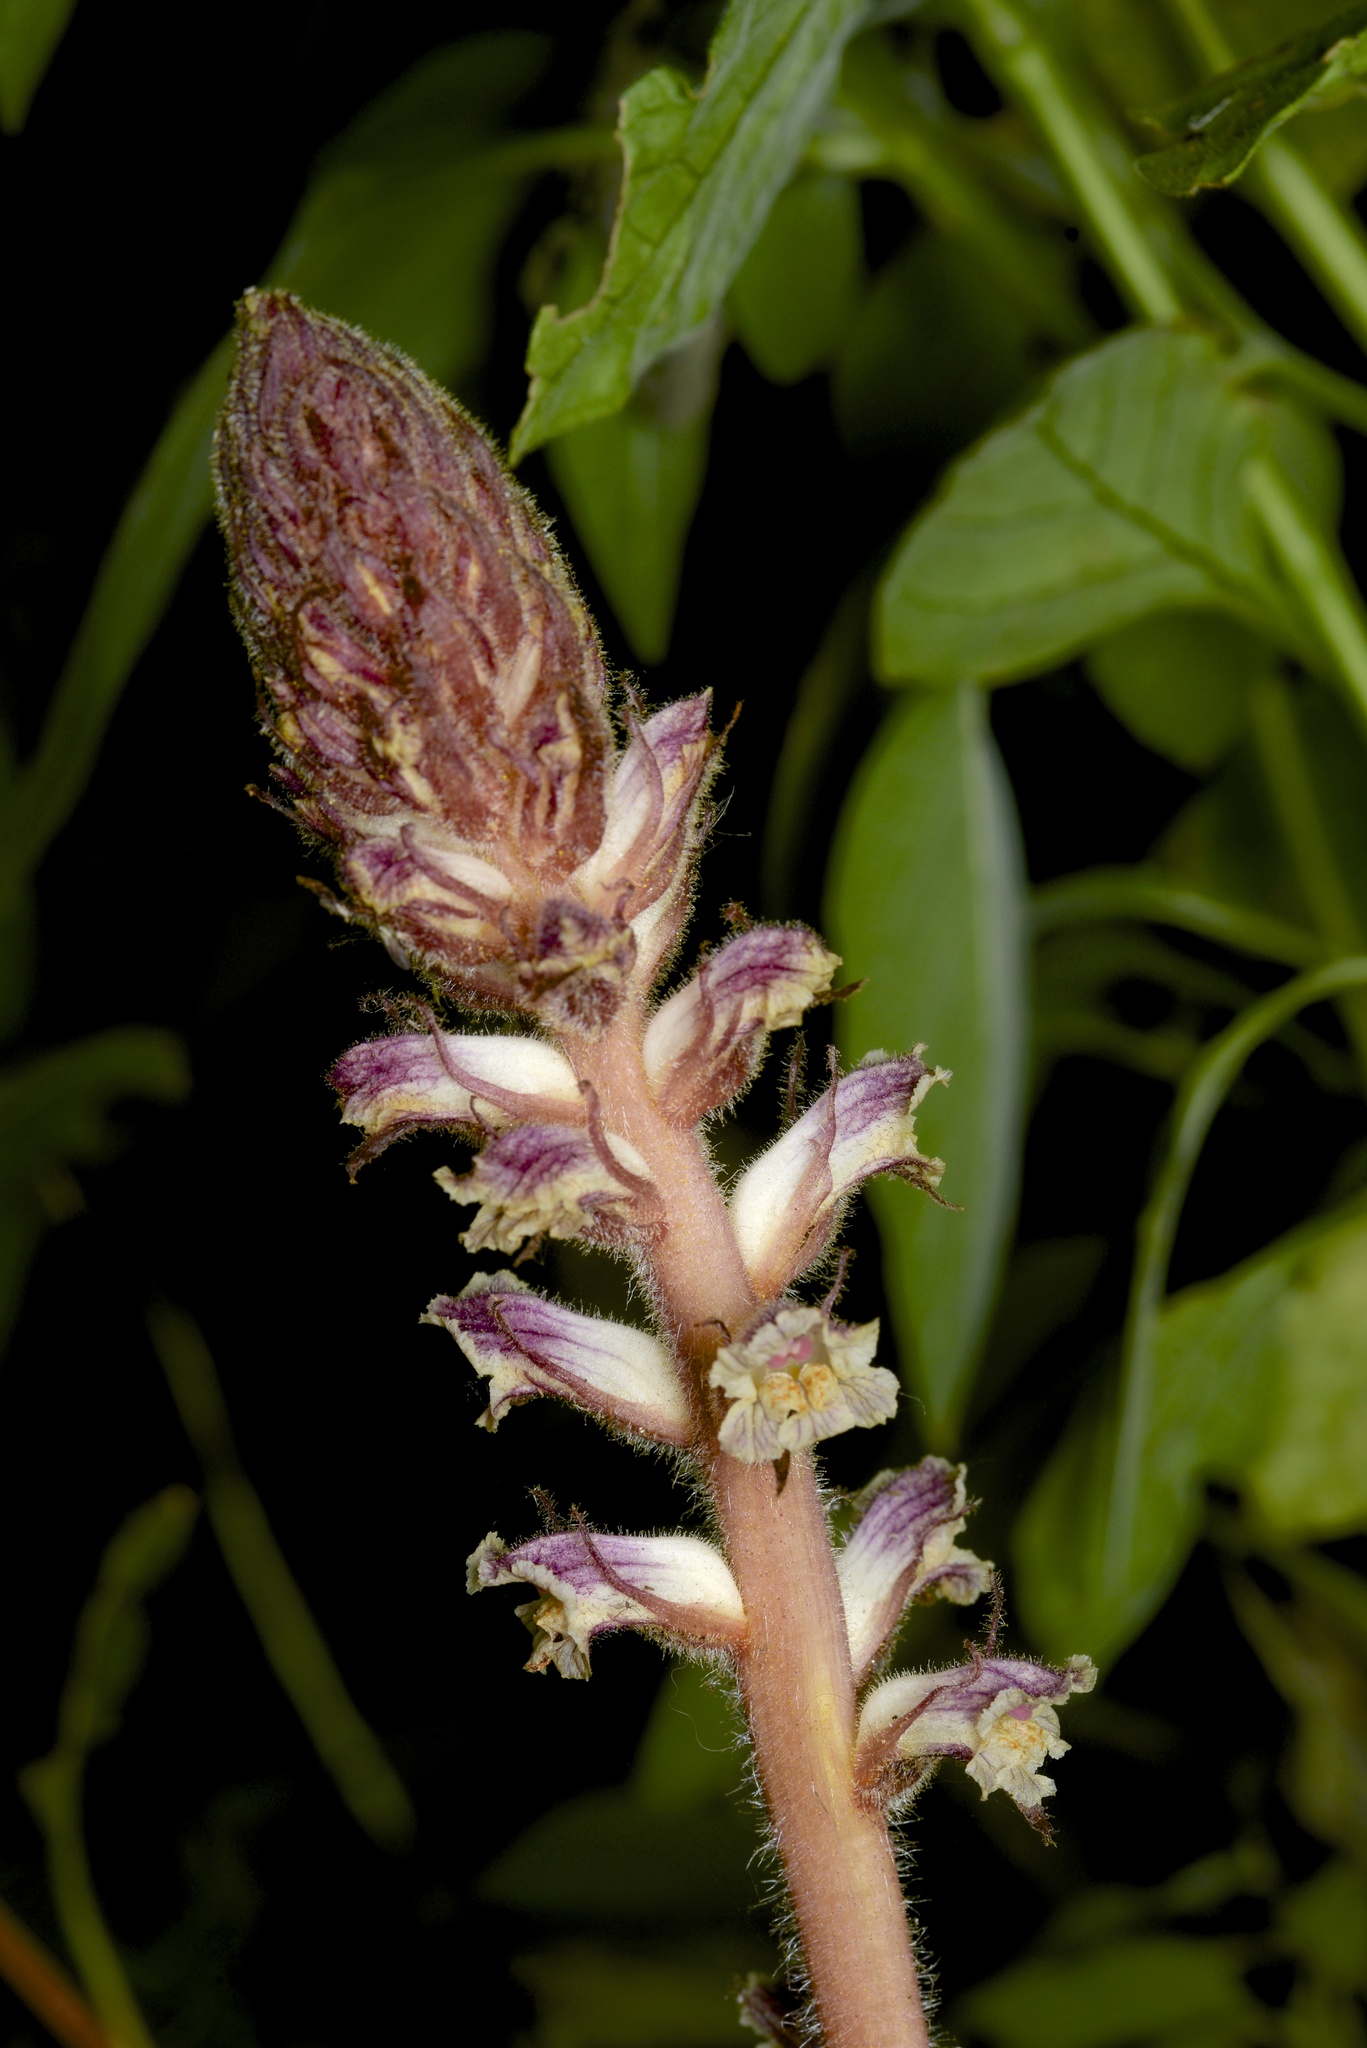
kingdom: Plantae
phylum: Tracheophyta
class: Magnoliopsida
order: Lamiales
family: Orobanchaceae
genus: Orobanche
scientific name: Orobanche minor
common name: Common broomrape
